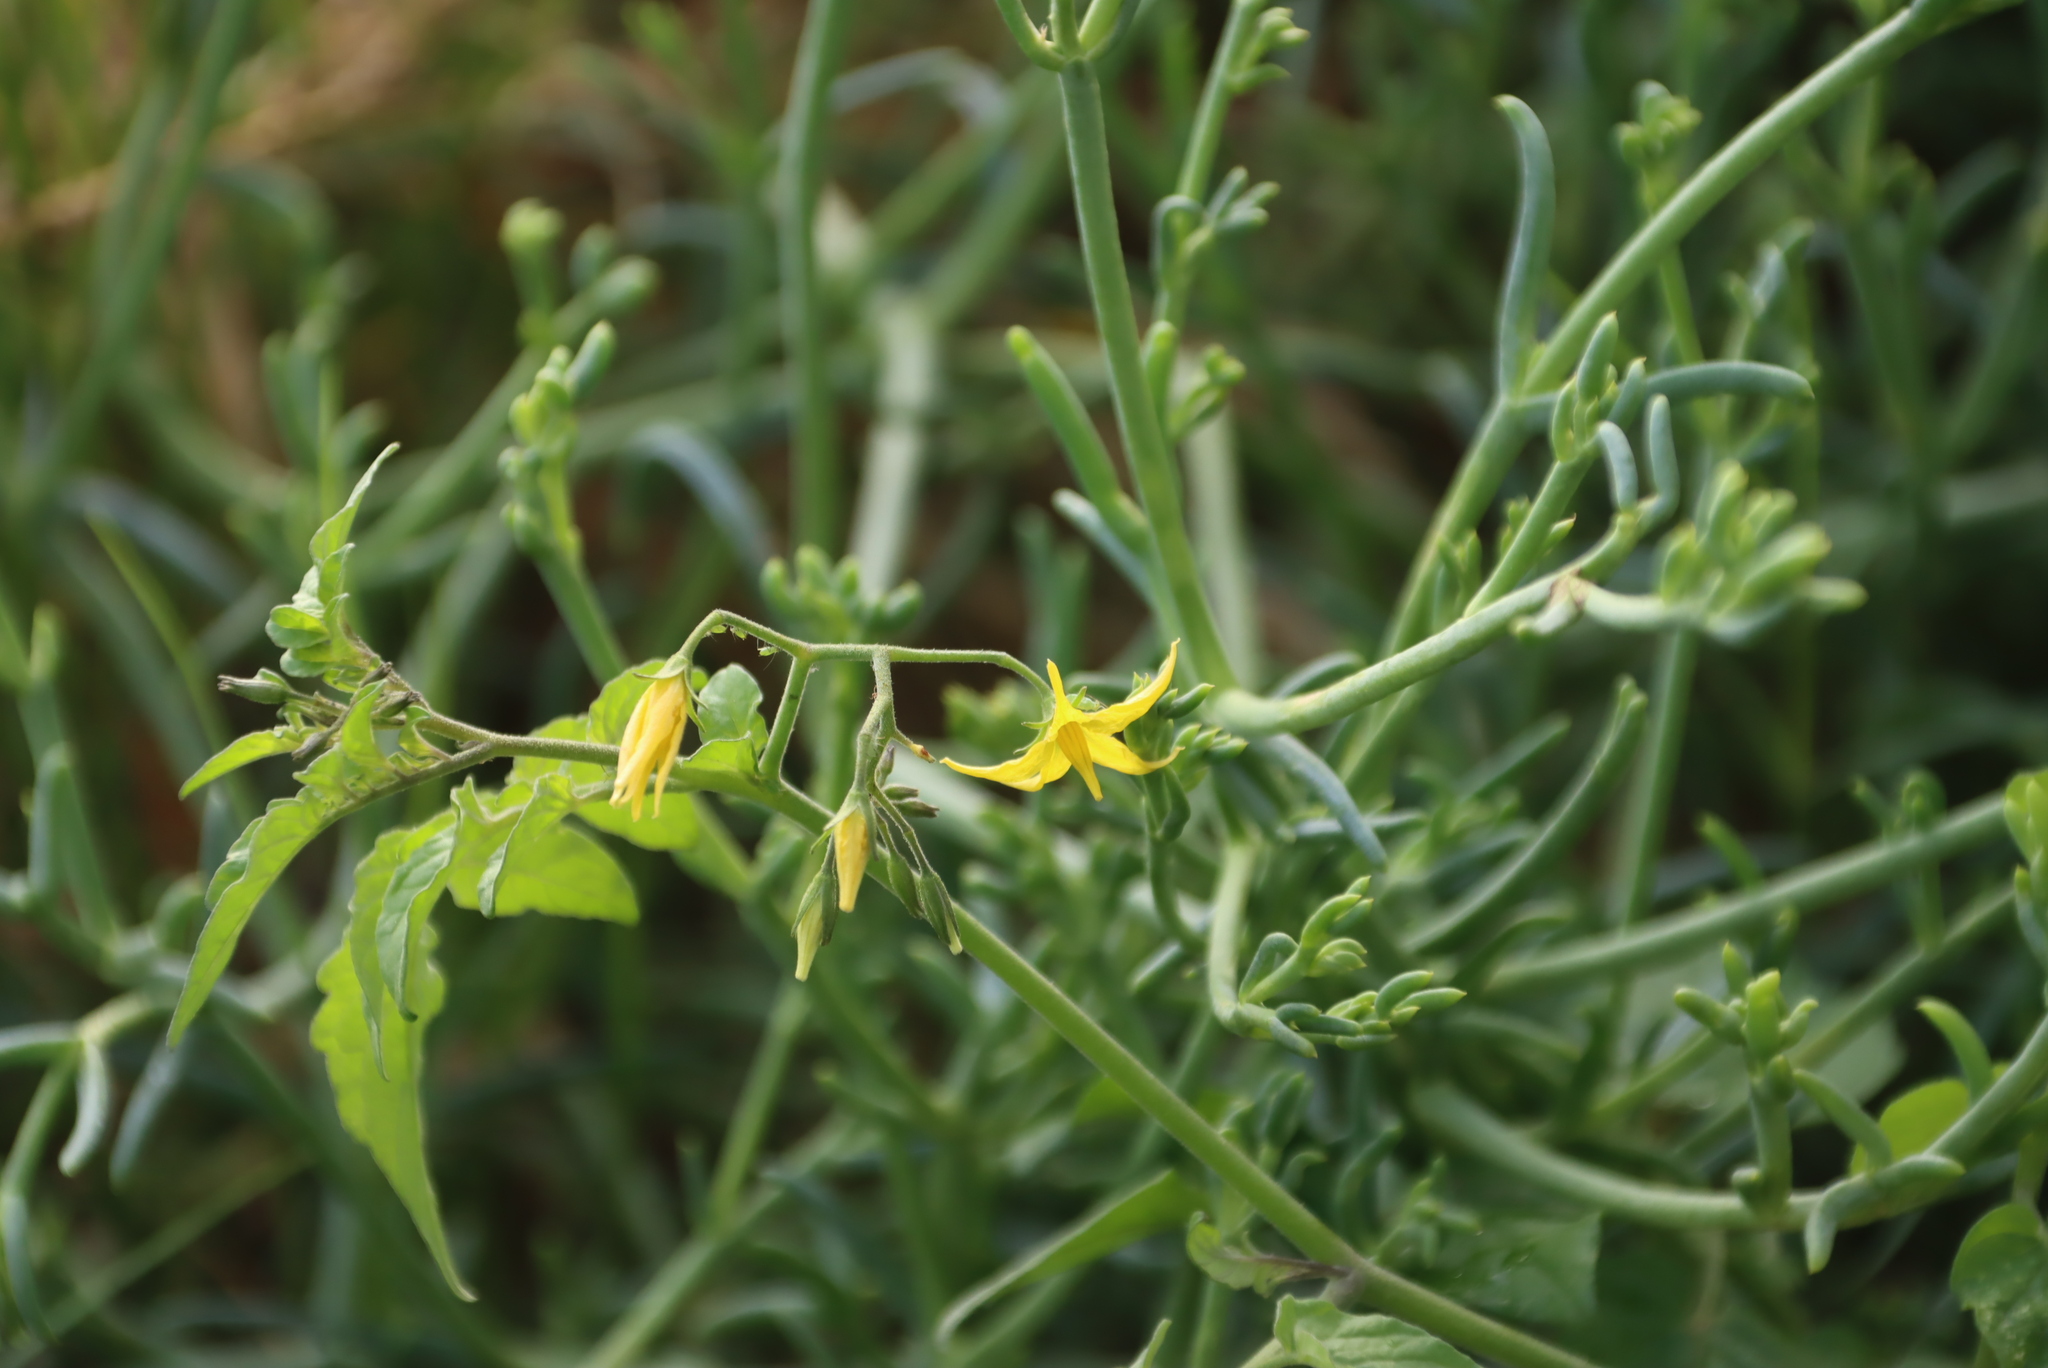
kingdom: Plantae
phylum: Tracheophyta
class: Magnoliopsida
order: Solanales
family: Solanaceae
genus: Solanum
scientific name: Solanum lycopersicum
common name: Garden tomato
